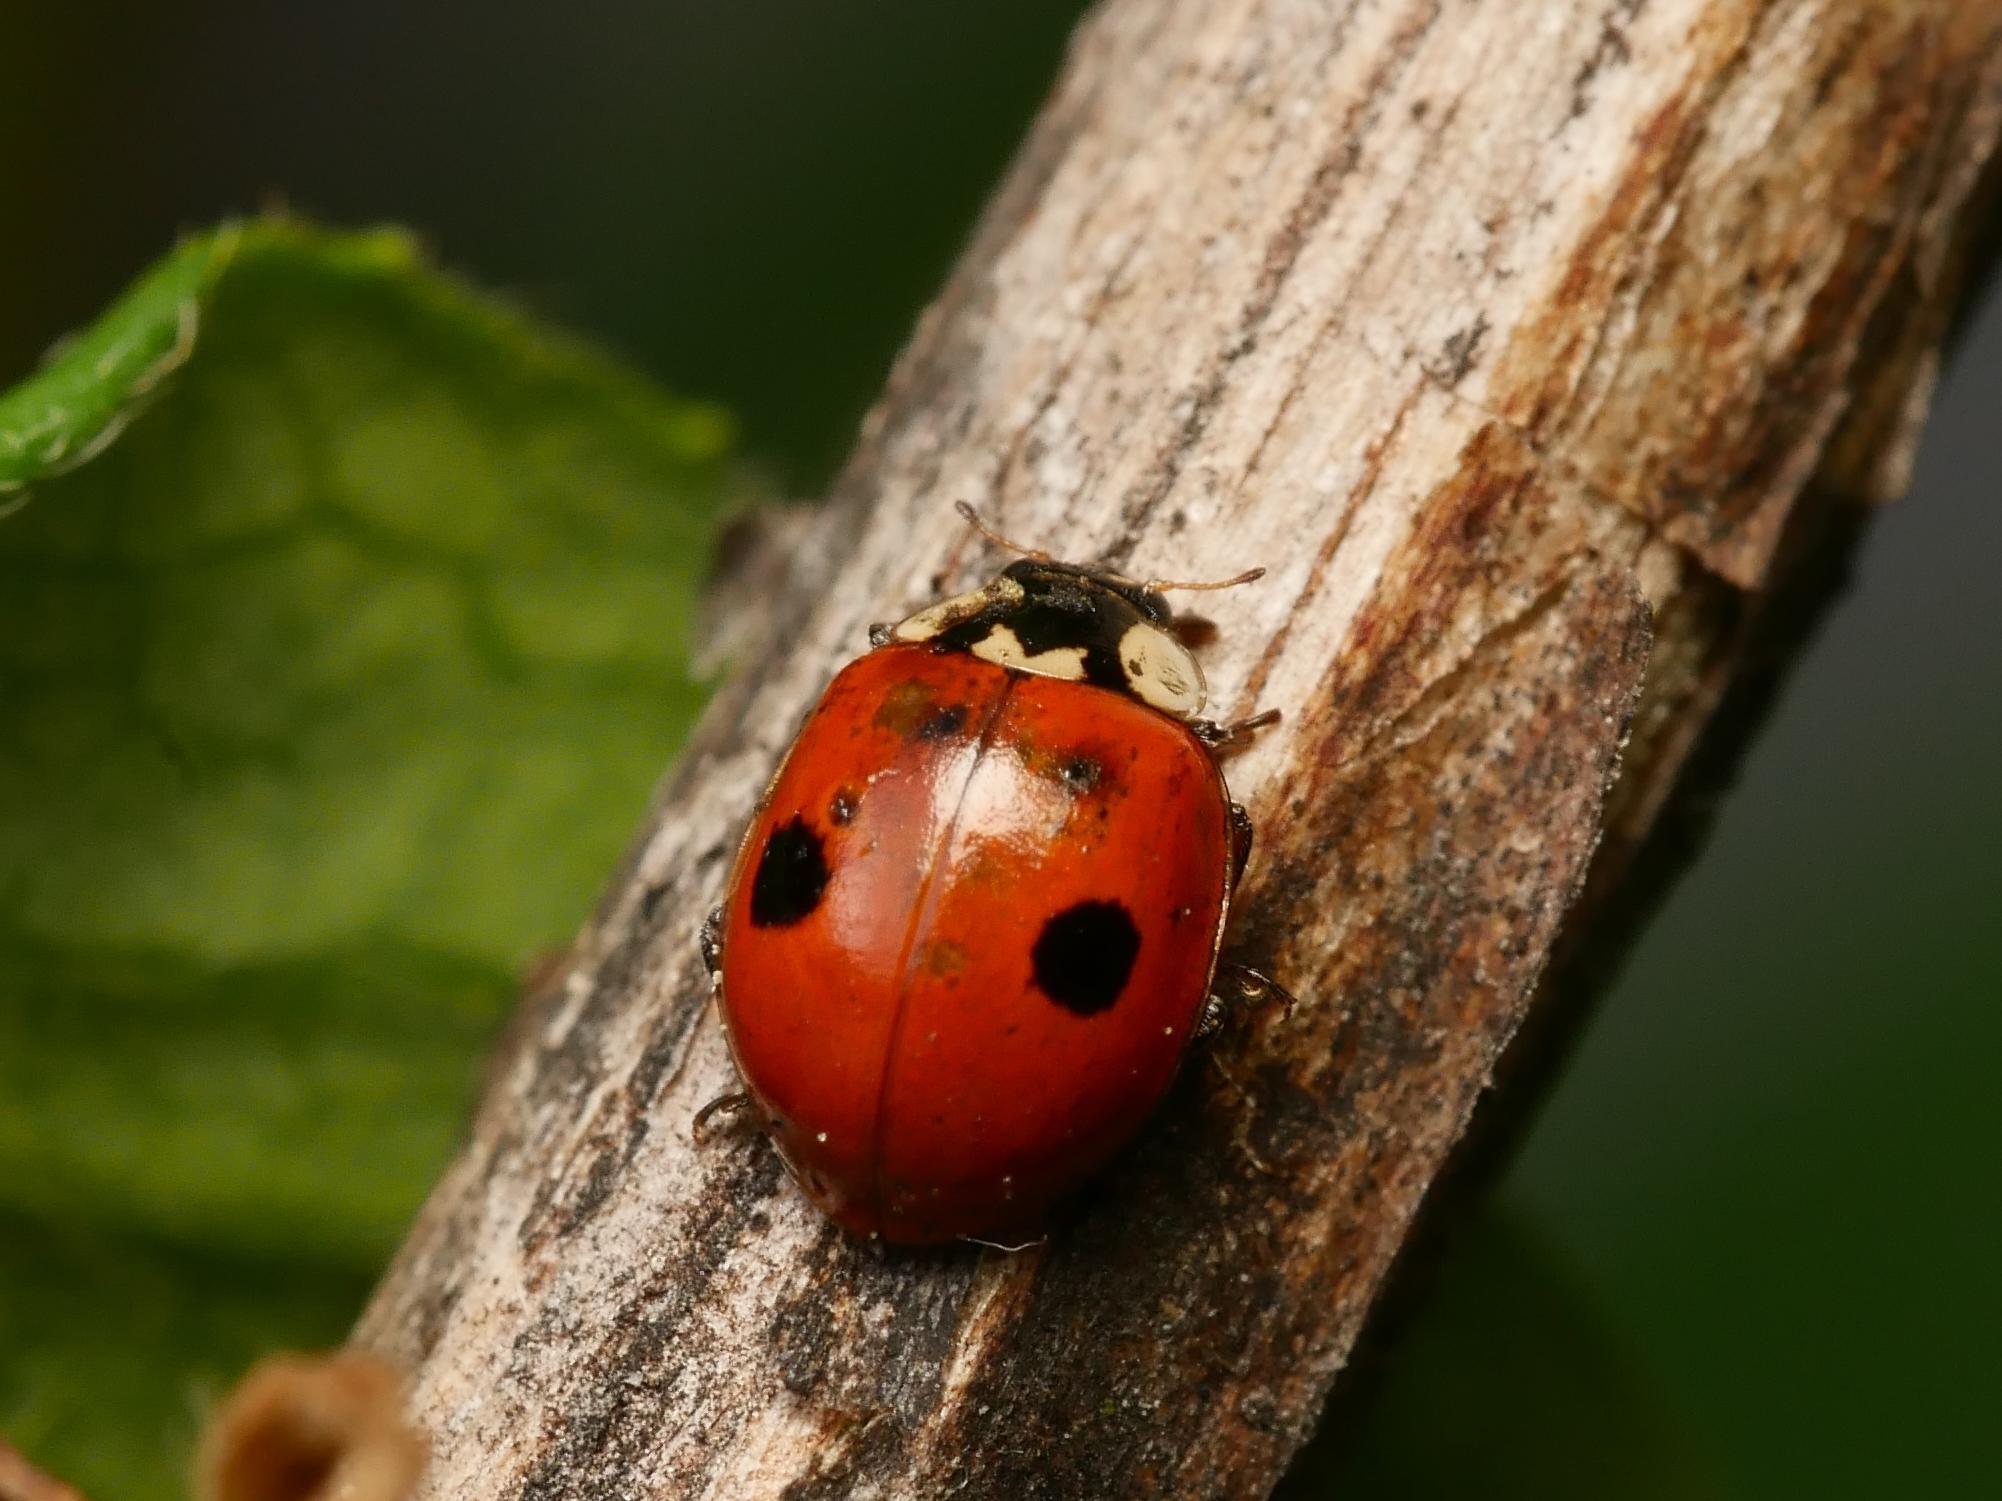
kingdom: Animalia
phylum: Arthropoda
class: Insecta
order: Coleoptera
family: Coccinellidae
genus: Adalia
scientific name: Adalia bipunctata
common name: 2-spot ladybird
